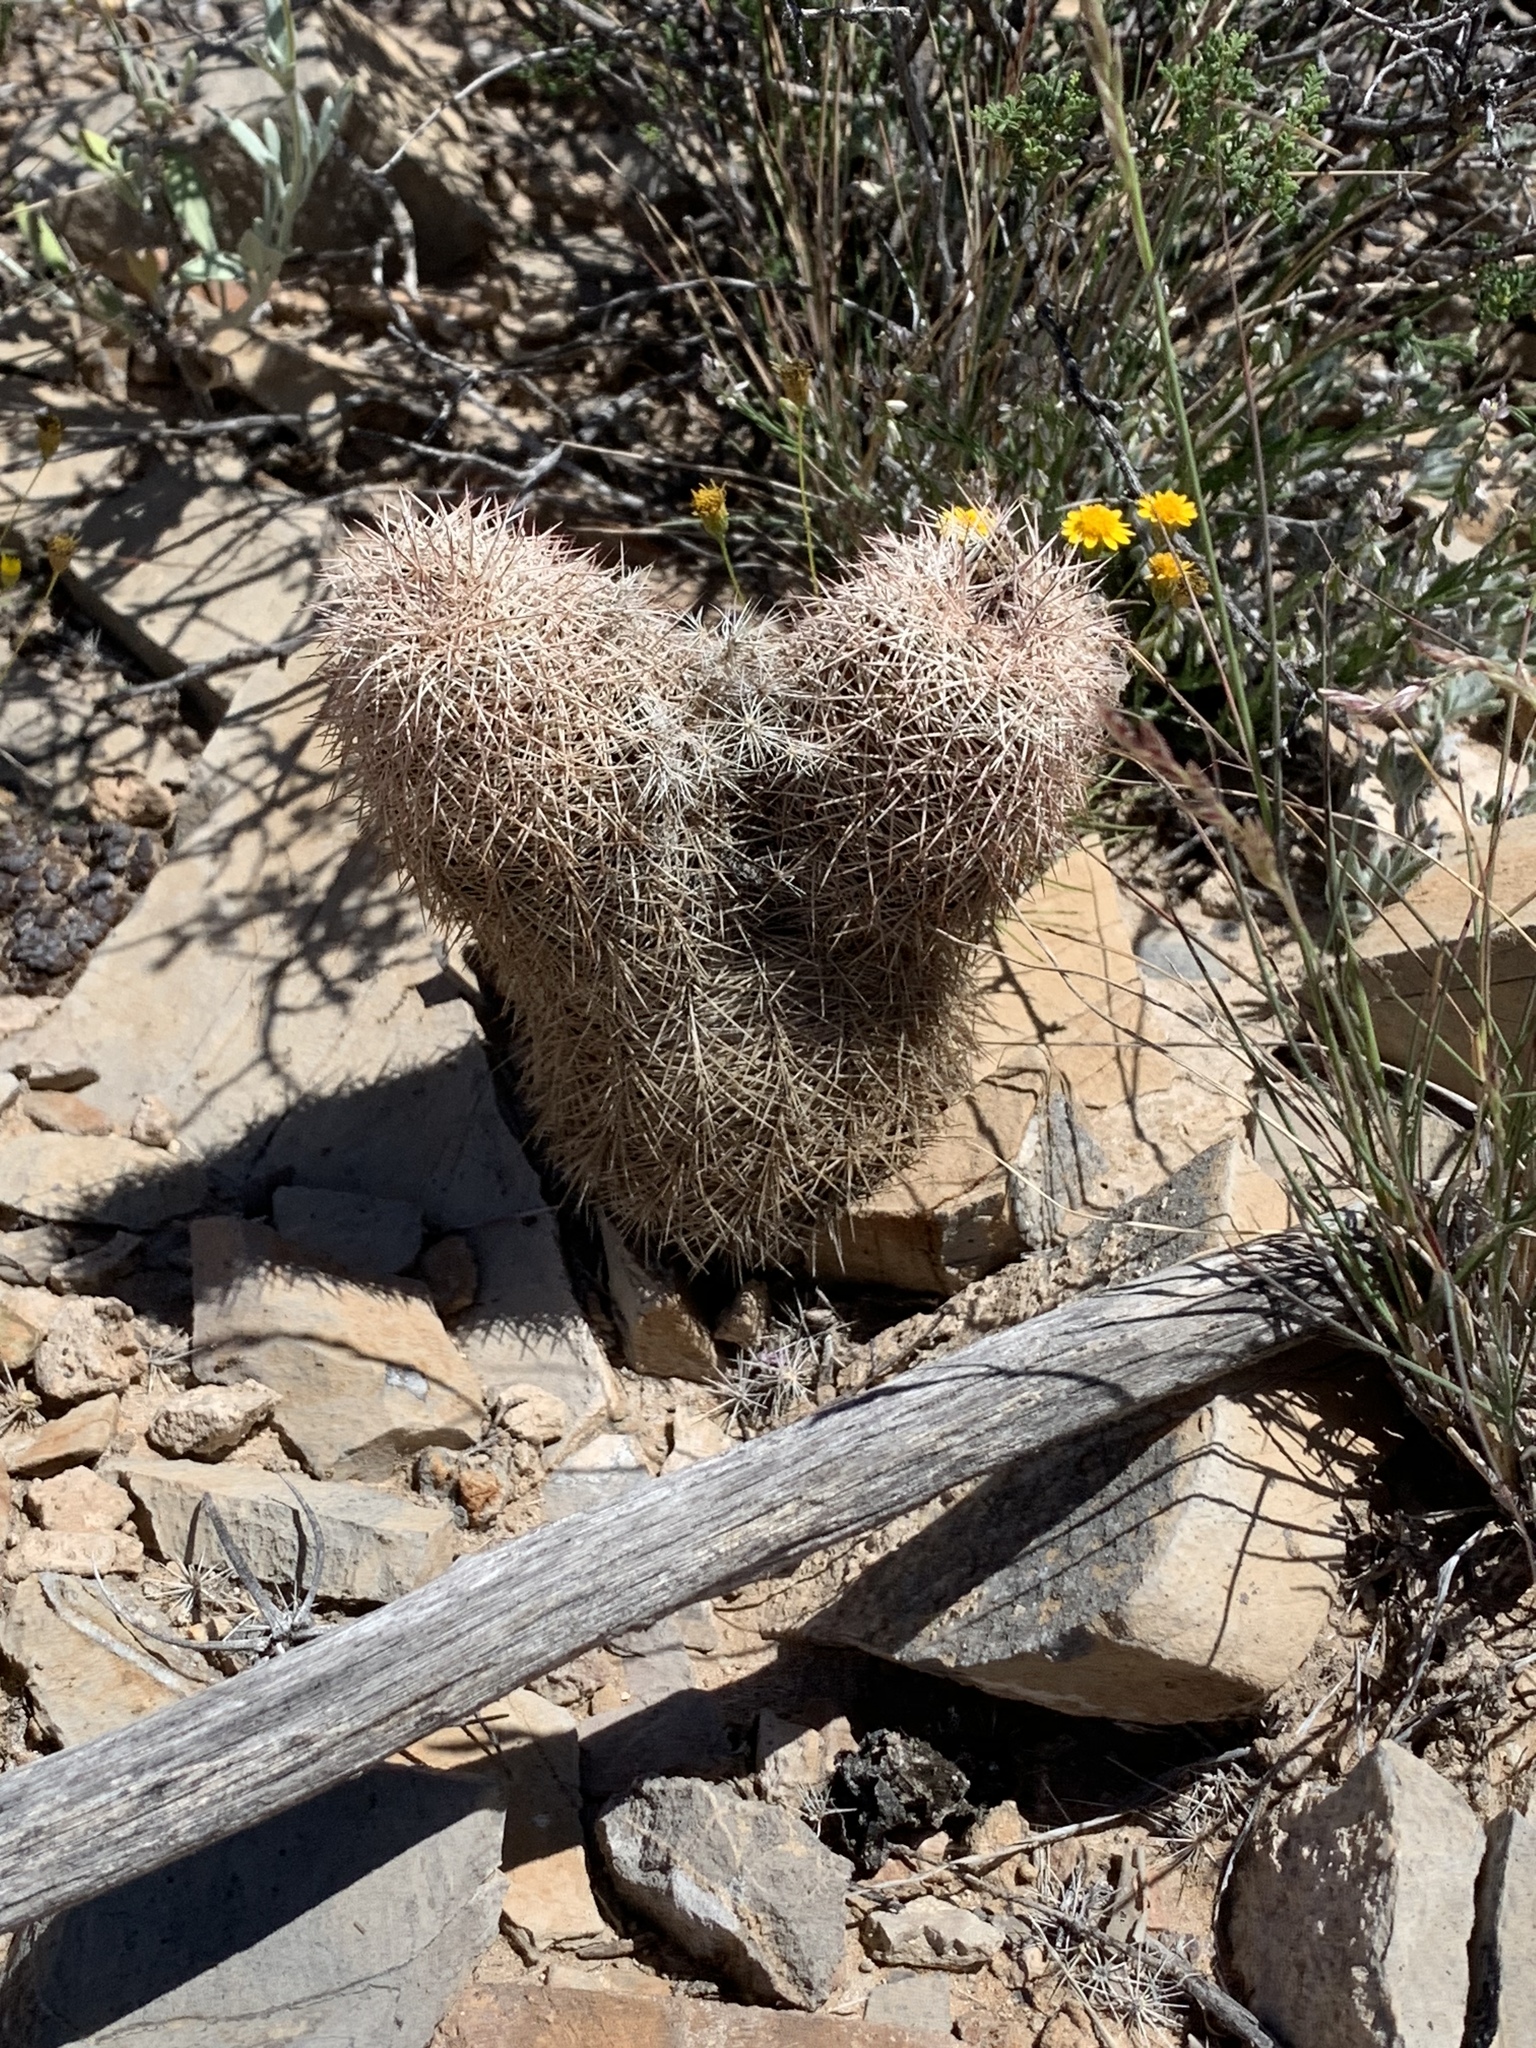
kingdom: Plantae
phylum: Tracheophyta
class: Magnoliopsida
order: Caryophyllales
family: Cactaceae
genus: Echinocereus
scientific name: Echinocereus dasyacanthus
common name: Spiny hedgehog cactus
